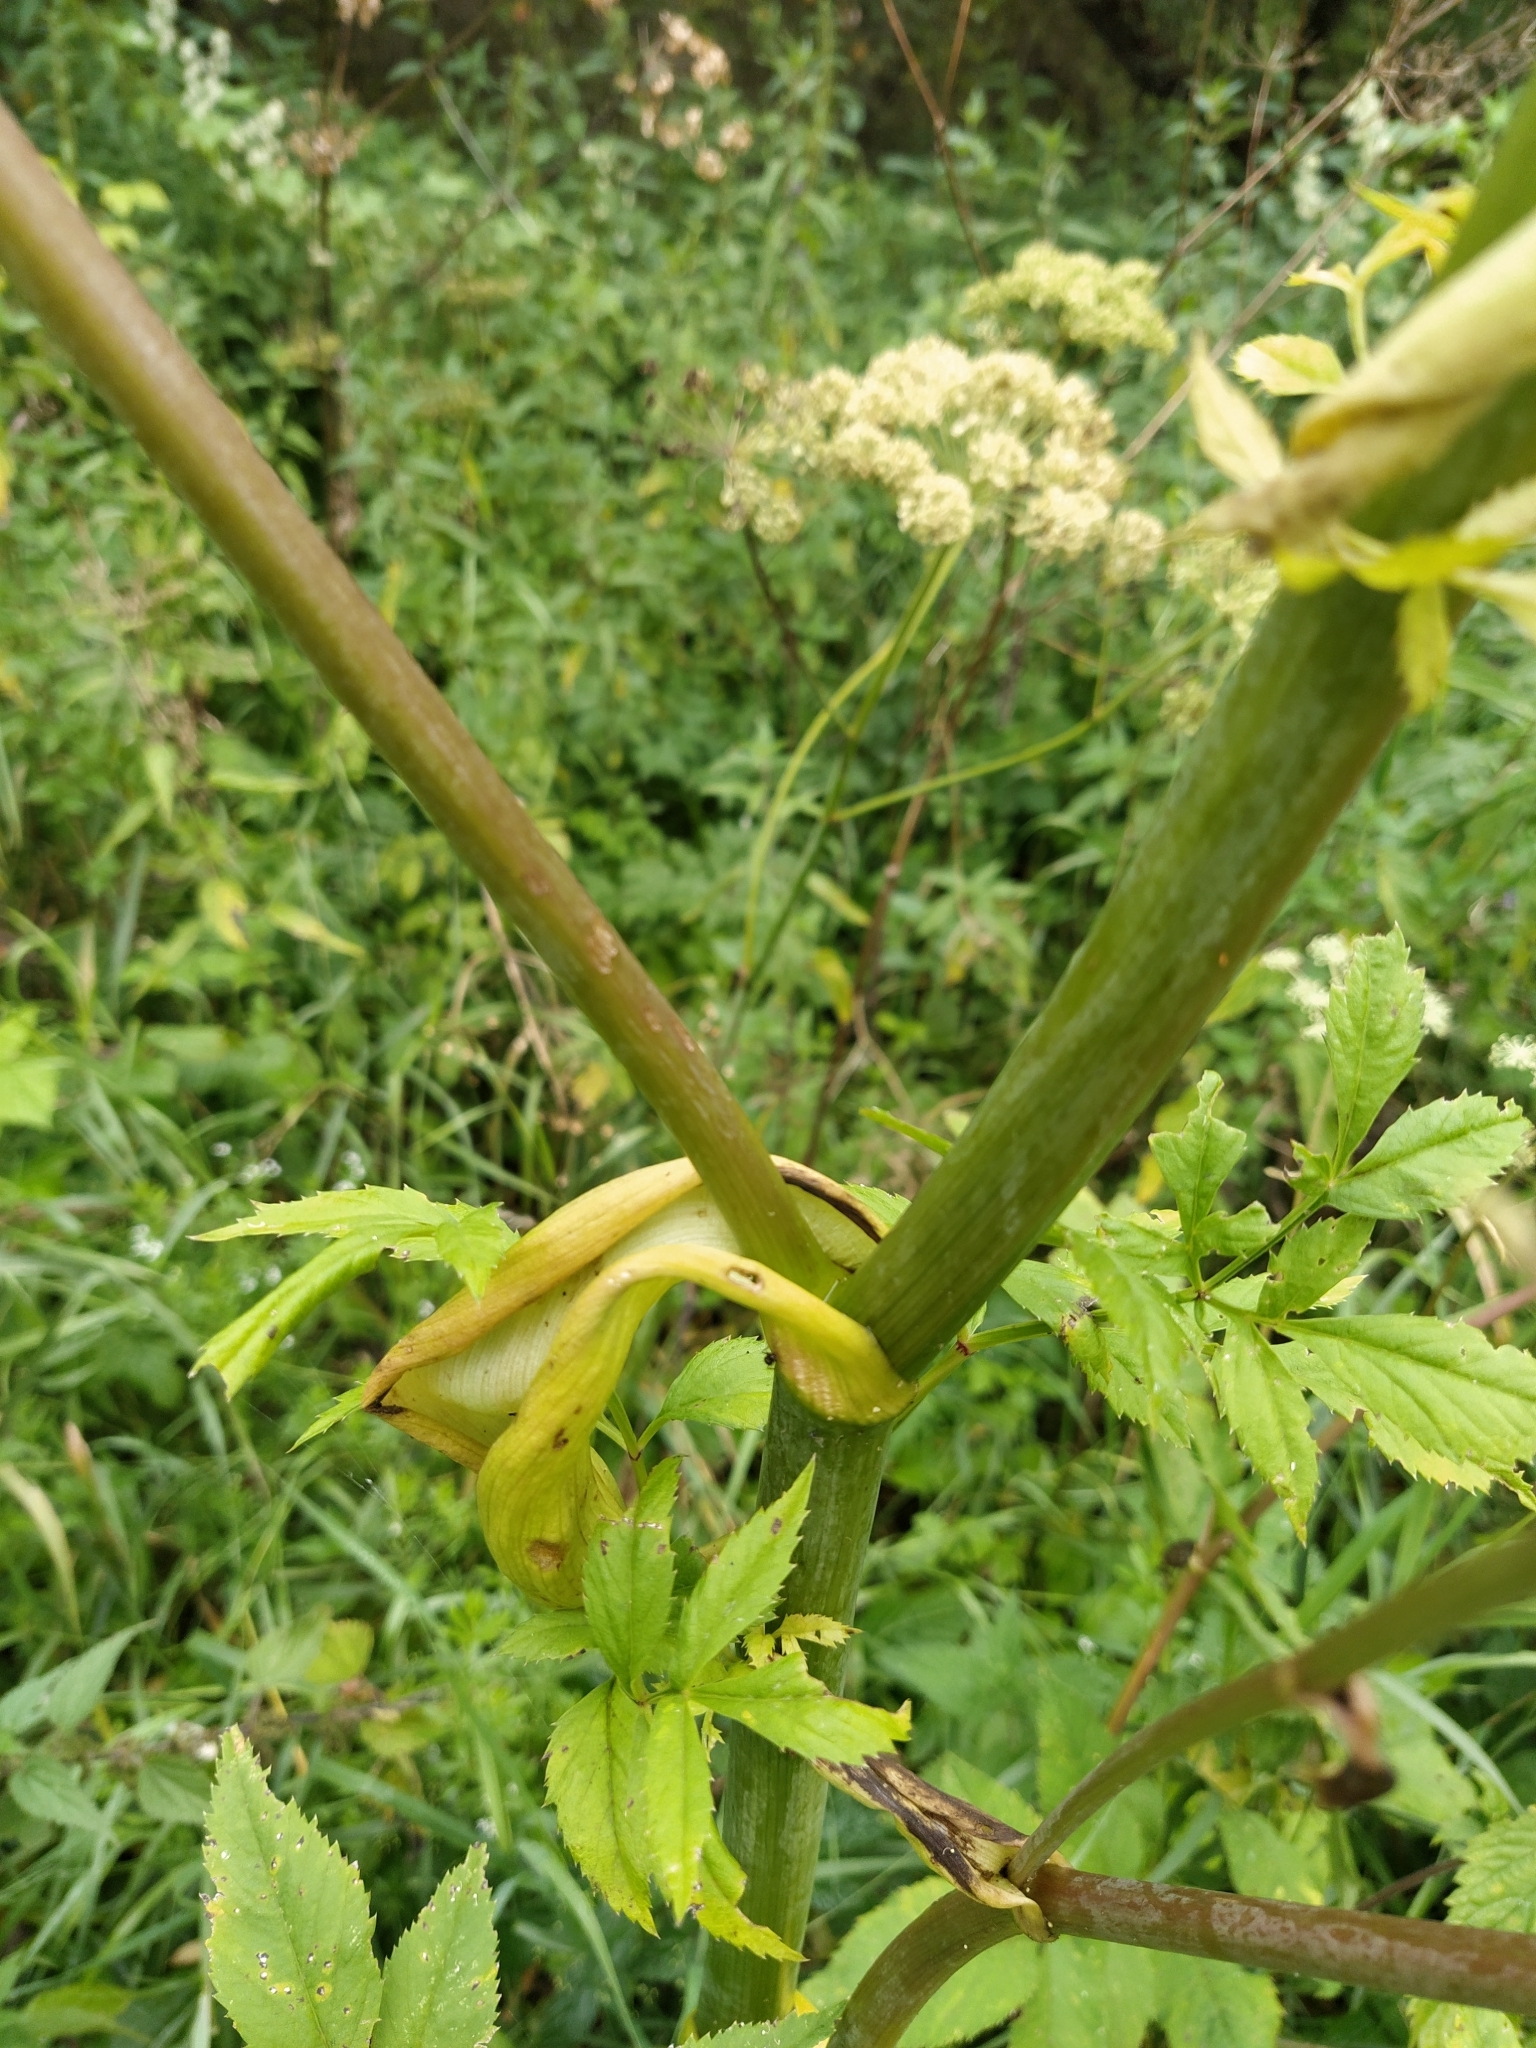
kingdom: Plantae
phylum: Tracheophyta
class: Magnoliopsida
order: Apiales
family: Apiaceae
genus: Angelica
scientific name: Angelica sylvestris
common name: Wild angelica
